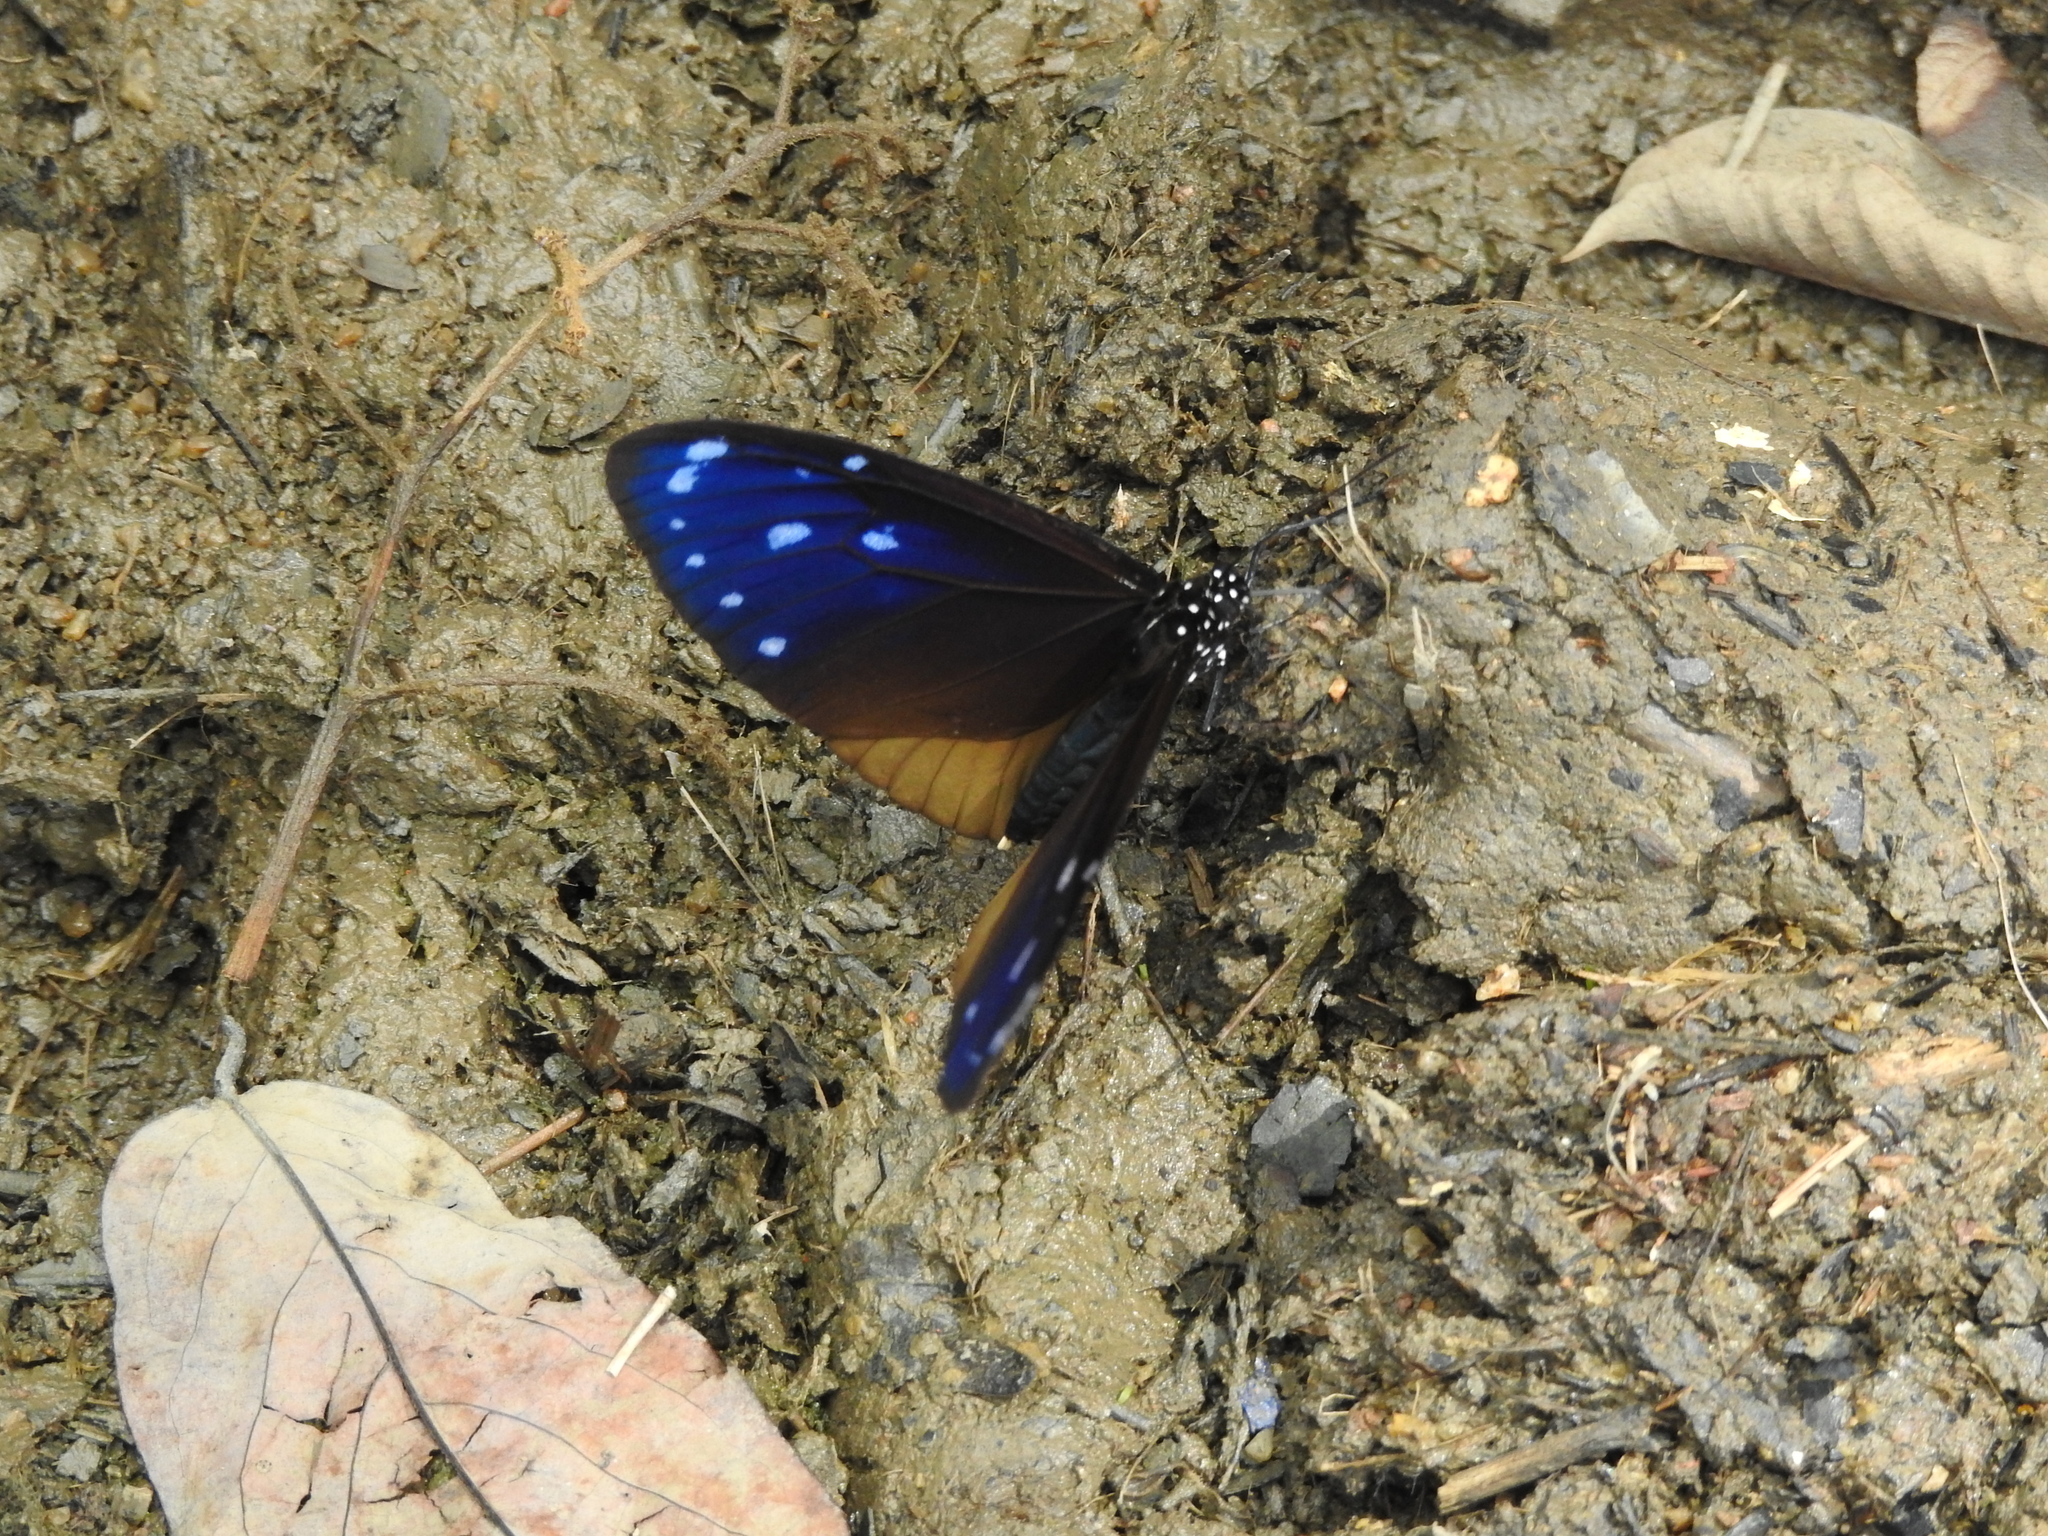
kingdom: Animalia
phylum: Arthropoda
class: Insecta
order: Lepidoptera
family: Nymphalidae
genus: Euploea
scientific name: Euploea mulciber
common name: Striped blue crow butterfly
